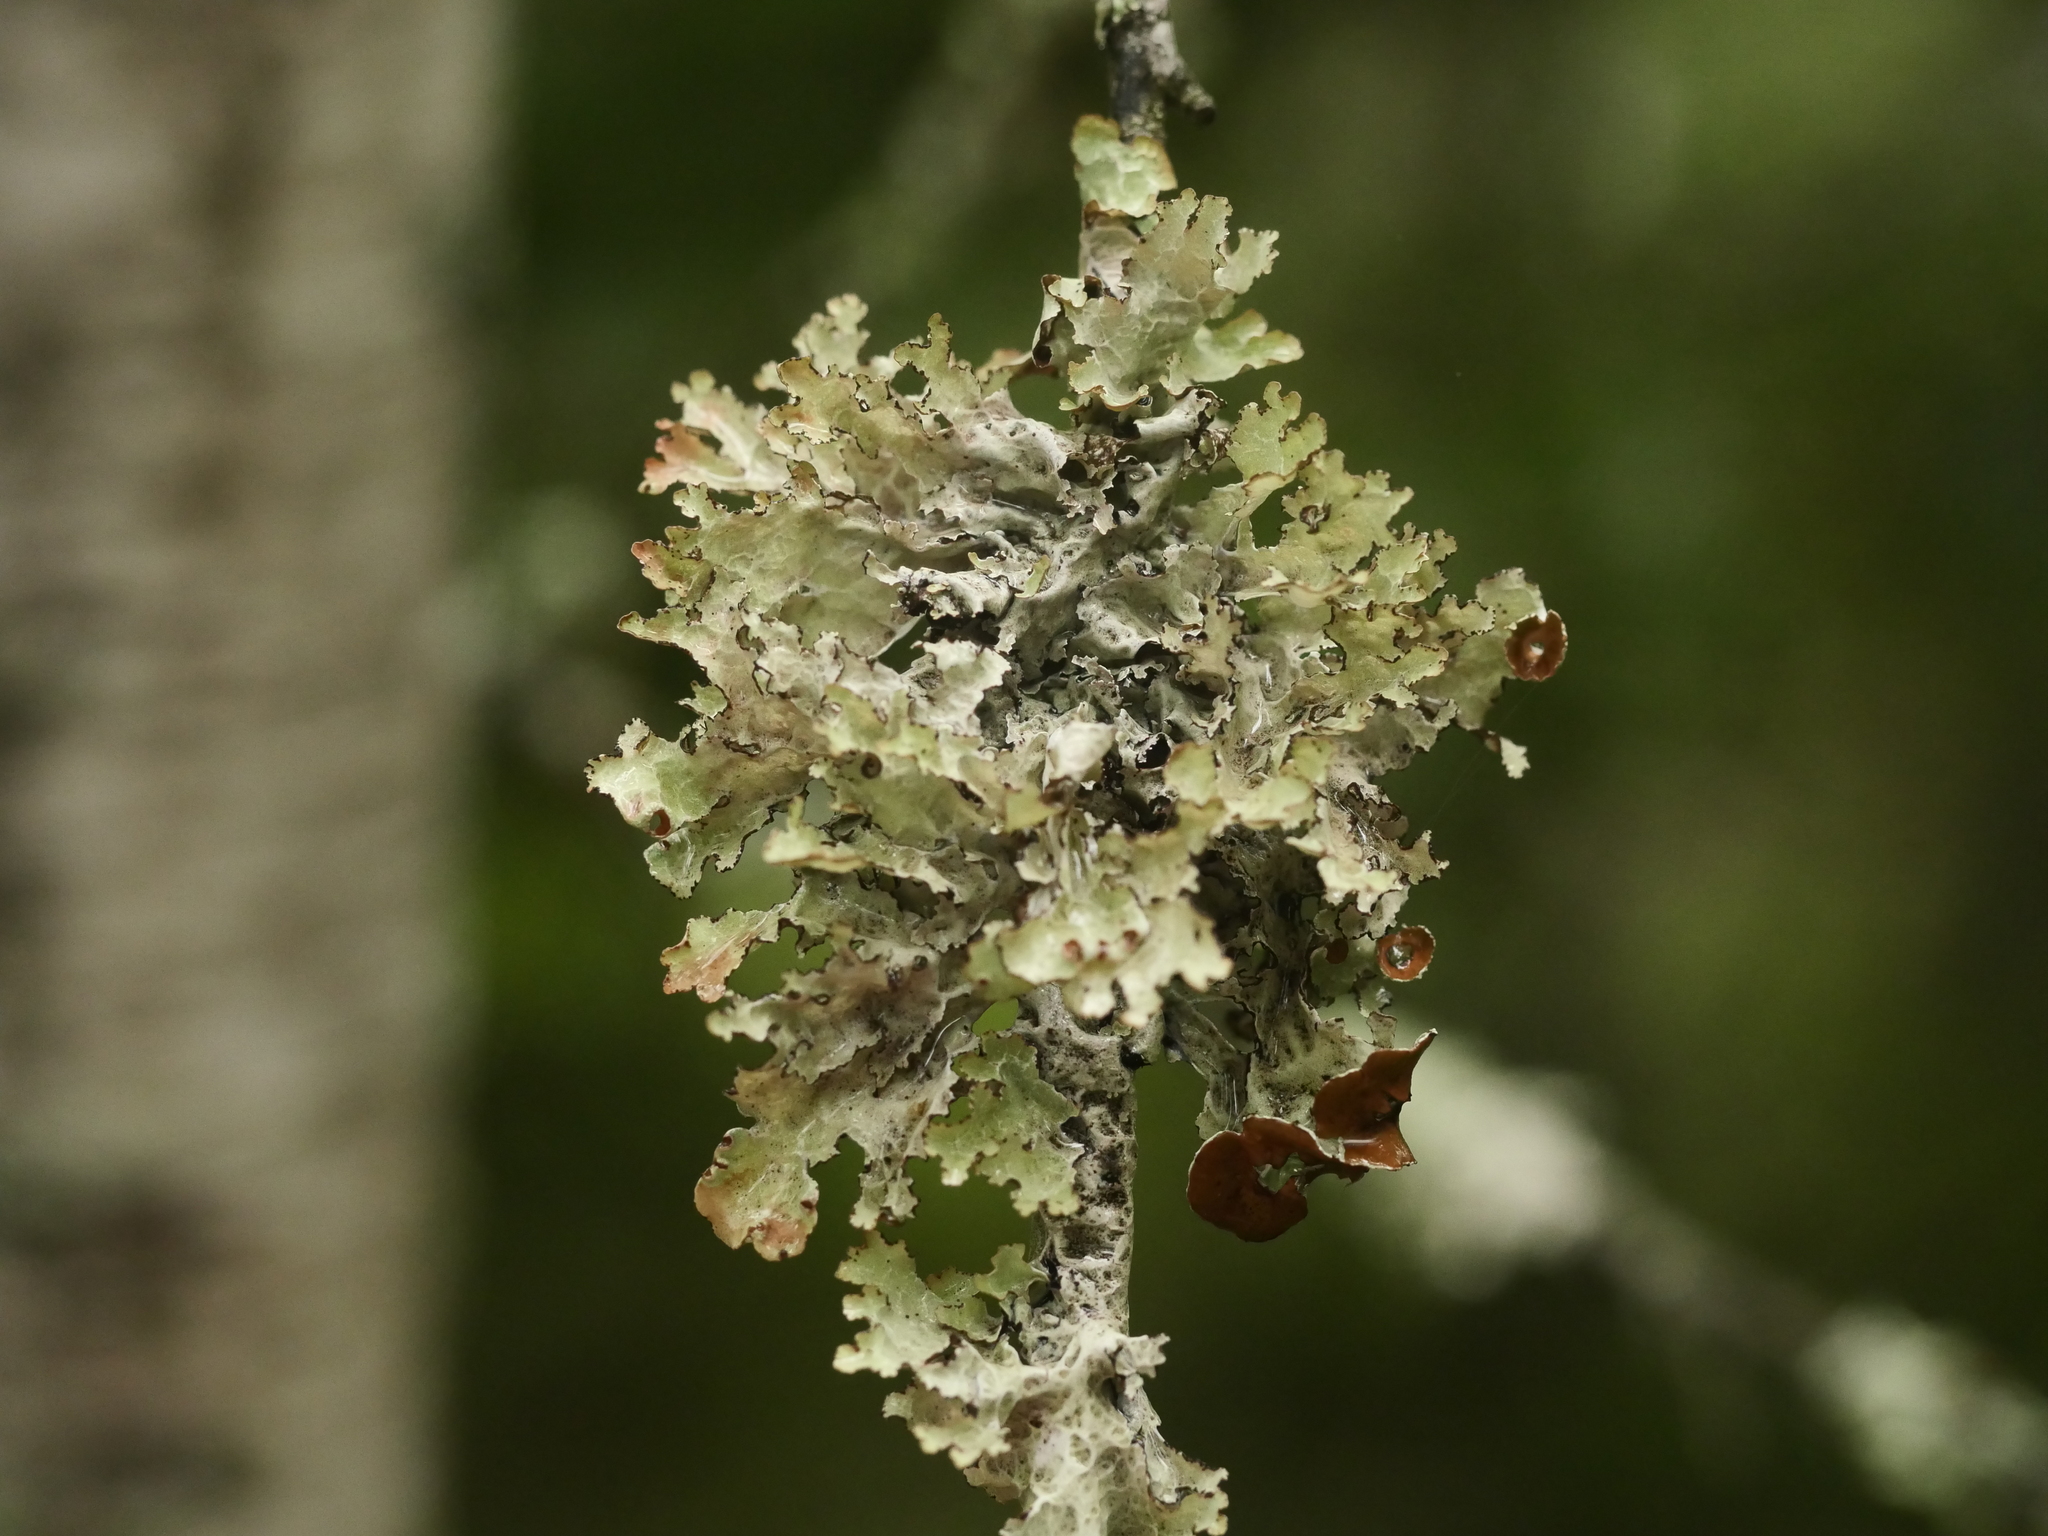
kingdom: Fungi
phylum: Ascomycota
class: Lecanoromycetes
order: Lecanorales
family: Parmeliaceae
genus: Platismatia
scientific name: Platismatia tuckermanii
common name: Crumpled rag lichen
